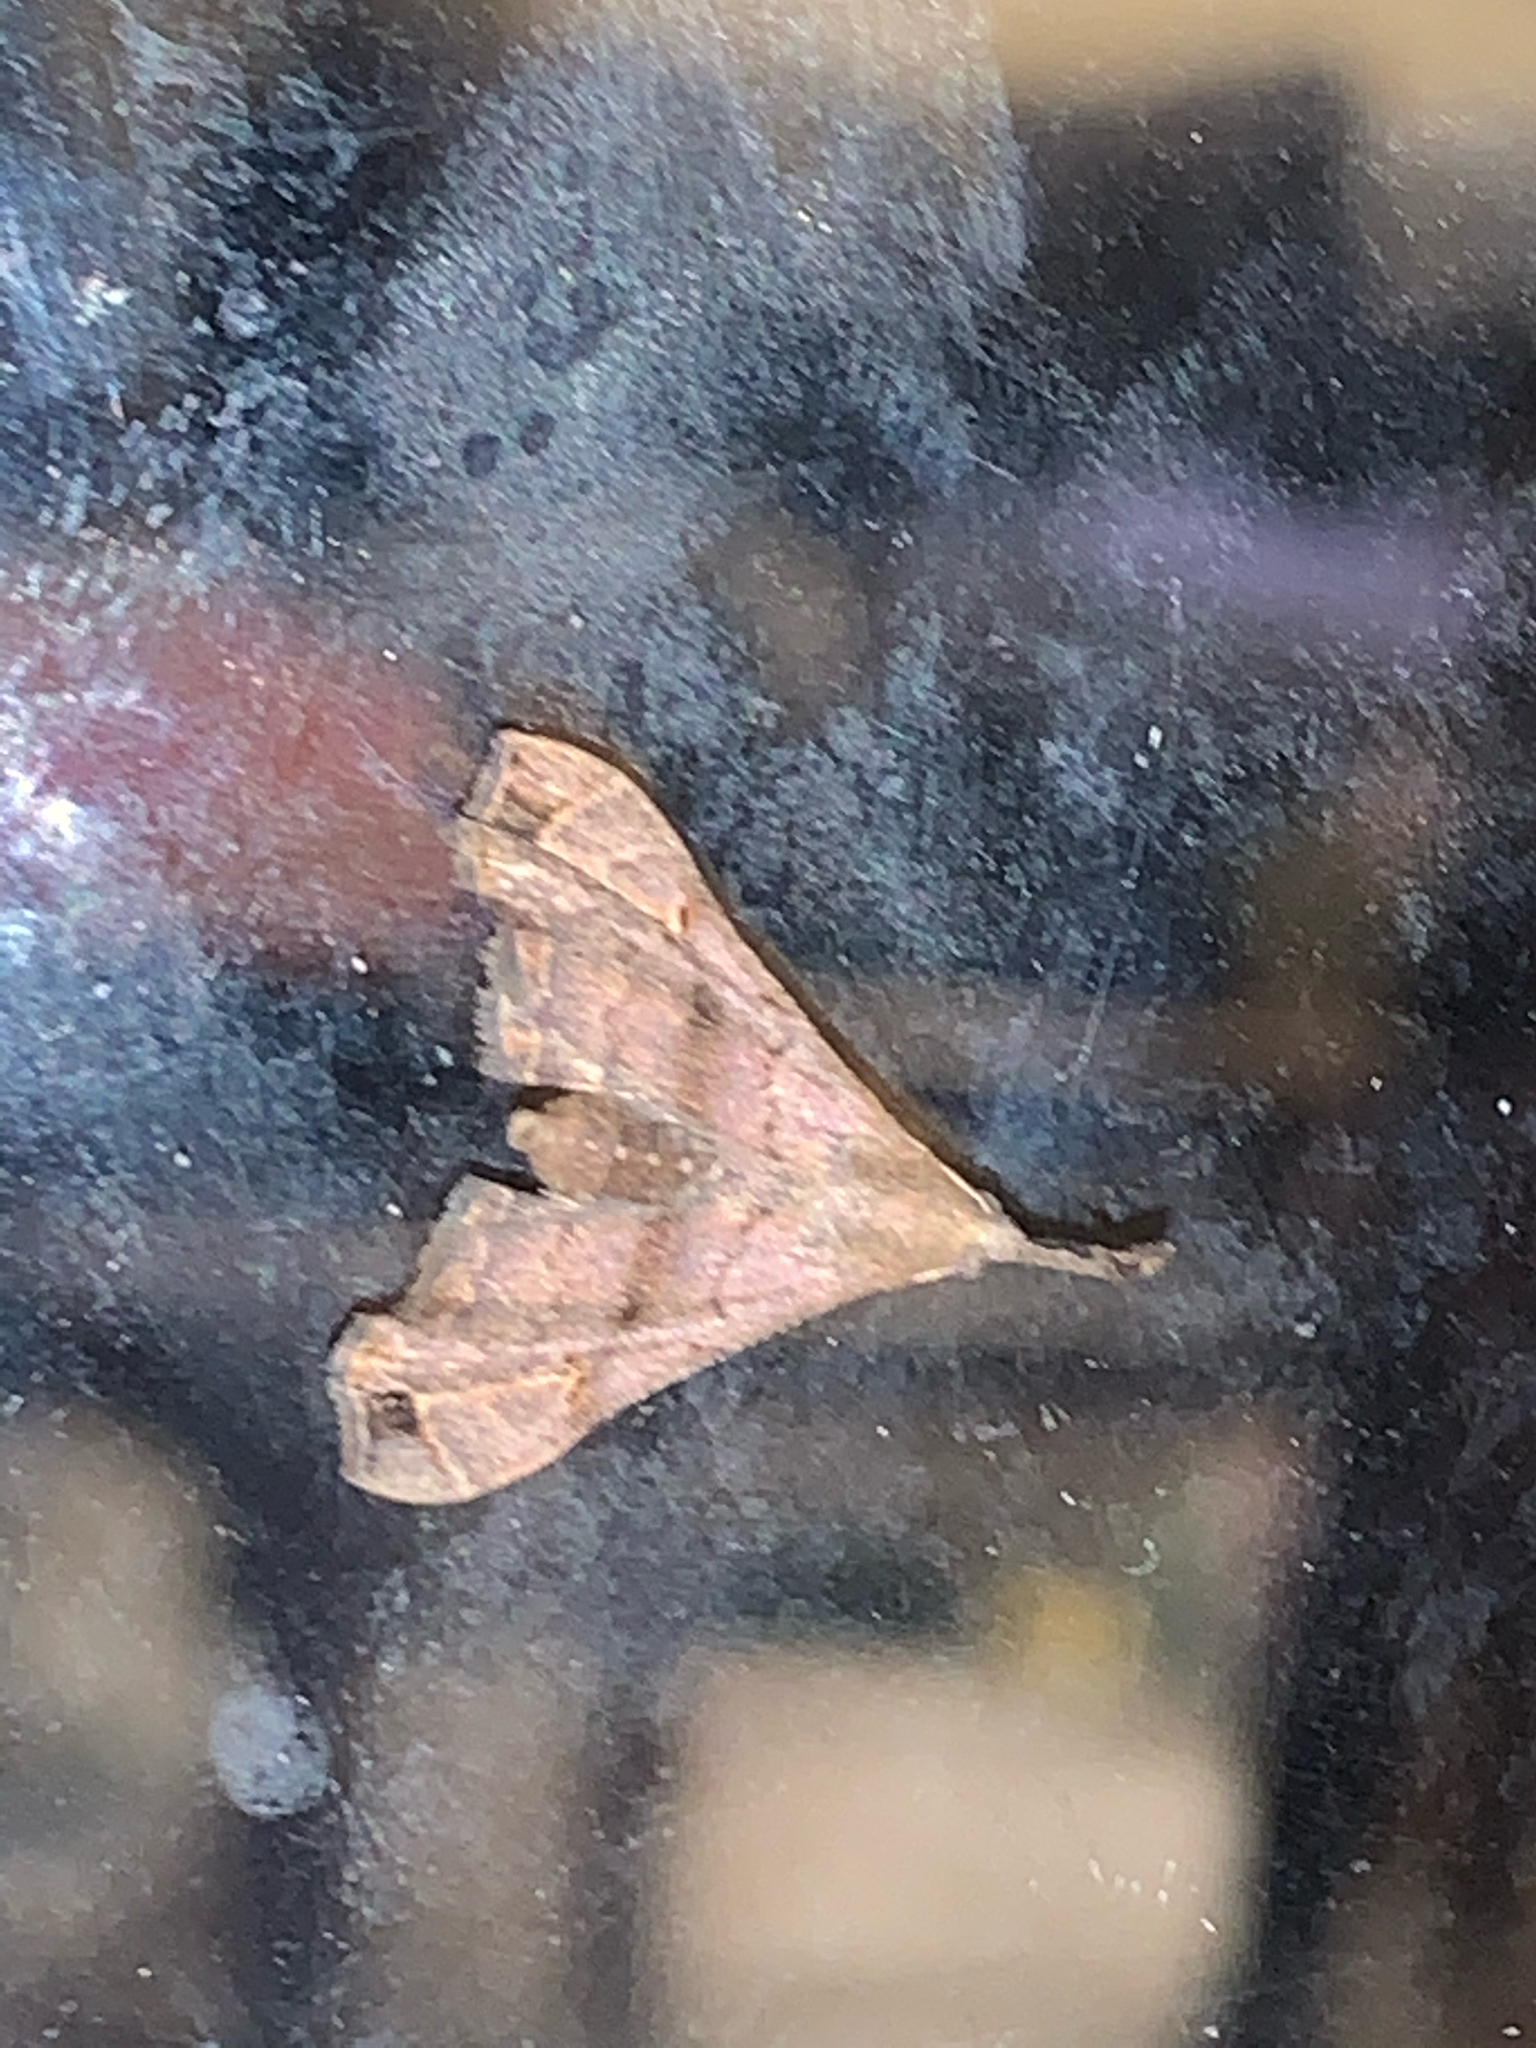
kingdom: Animalia
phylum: Arthropoda
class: Insecta
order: Lepidoptera
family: Erebidae
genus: Palthis
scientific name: Palthis asopialis
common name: Faint-spotted palthis moth
